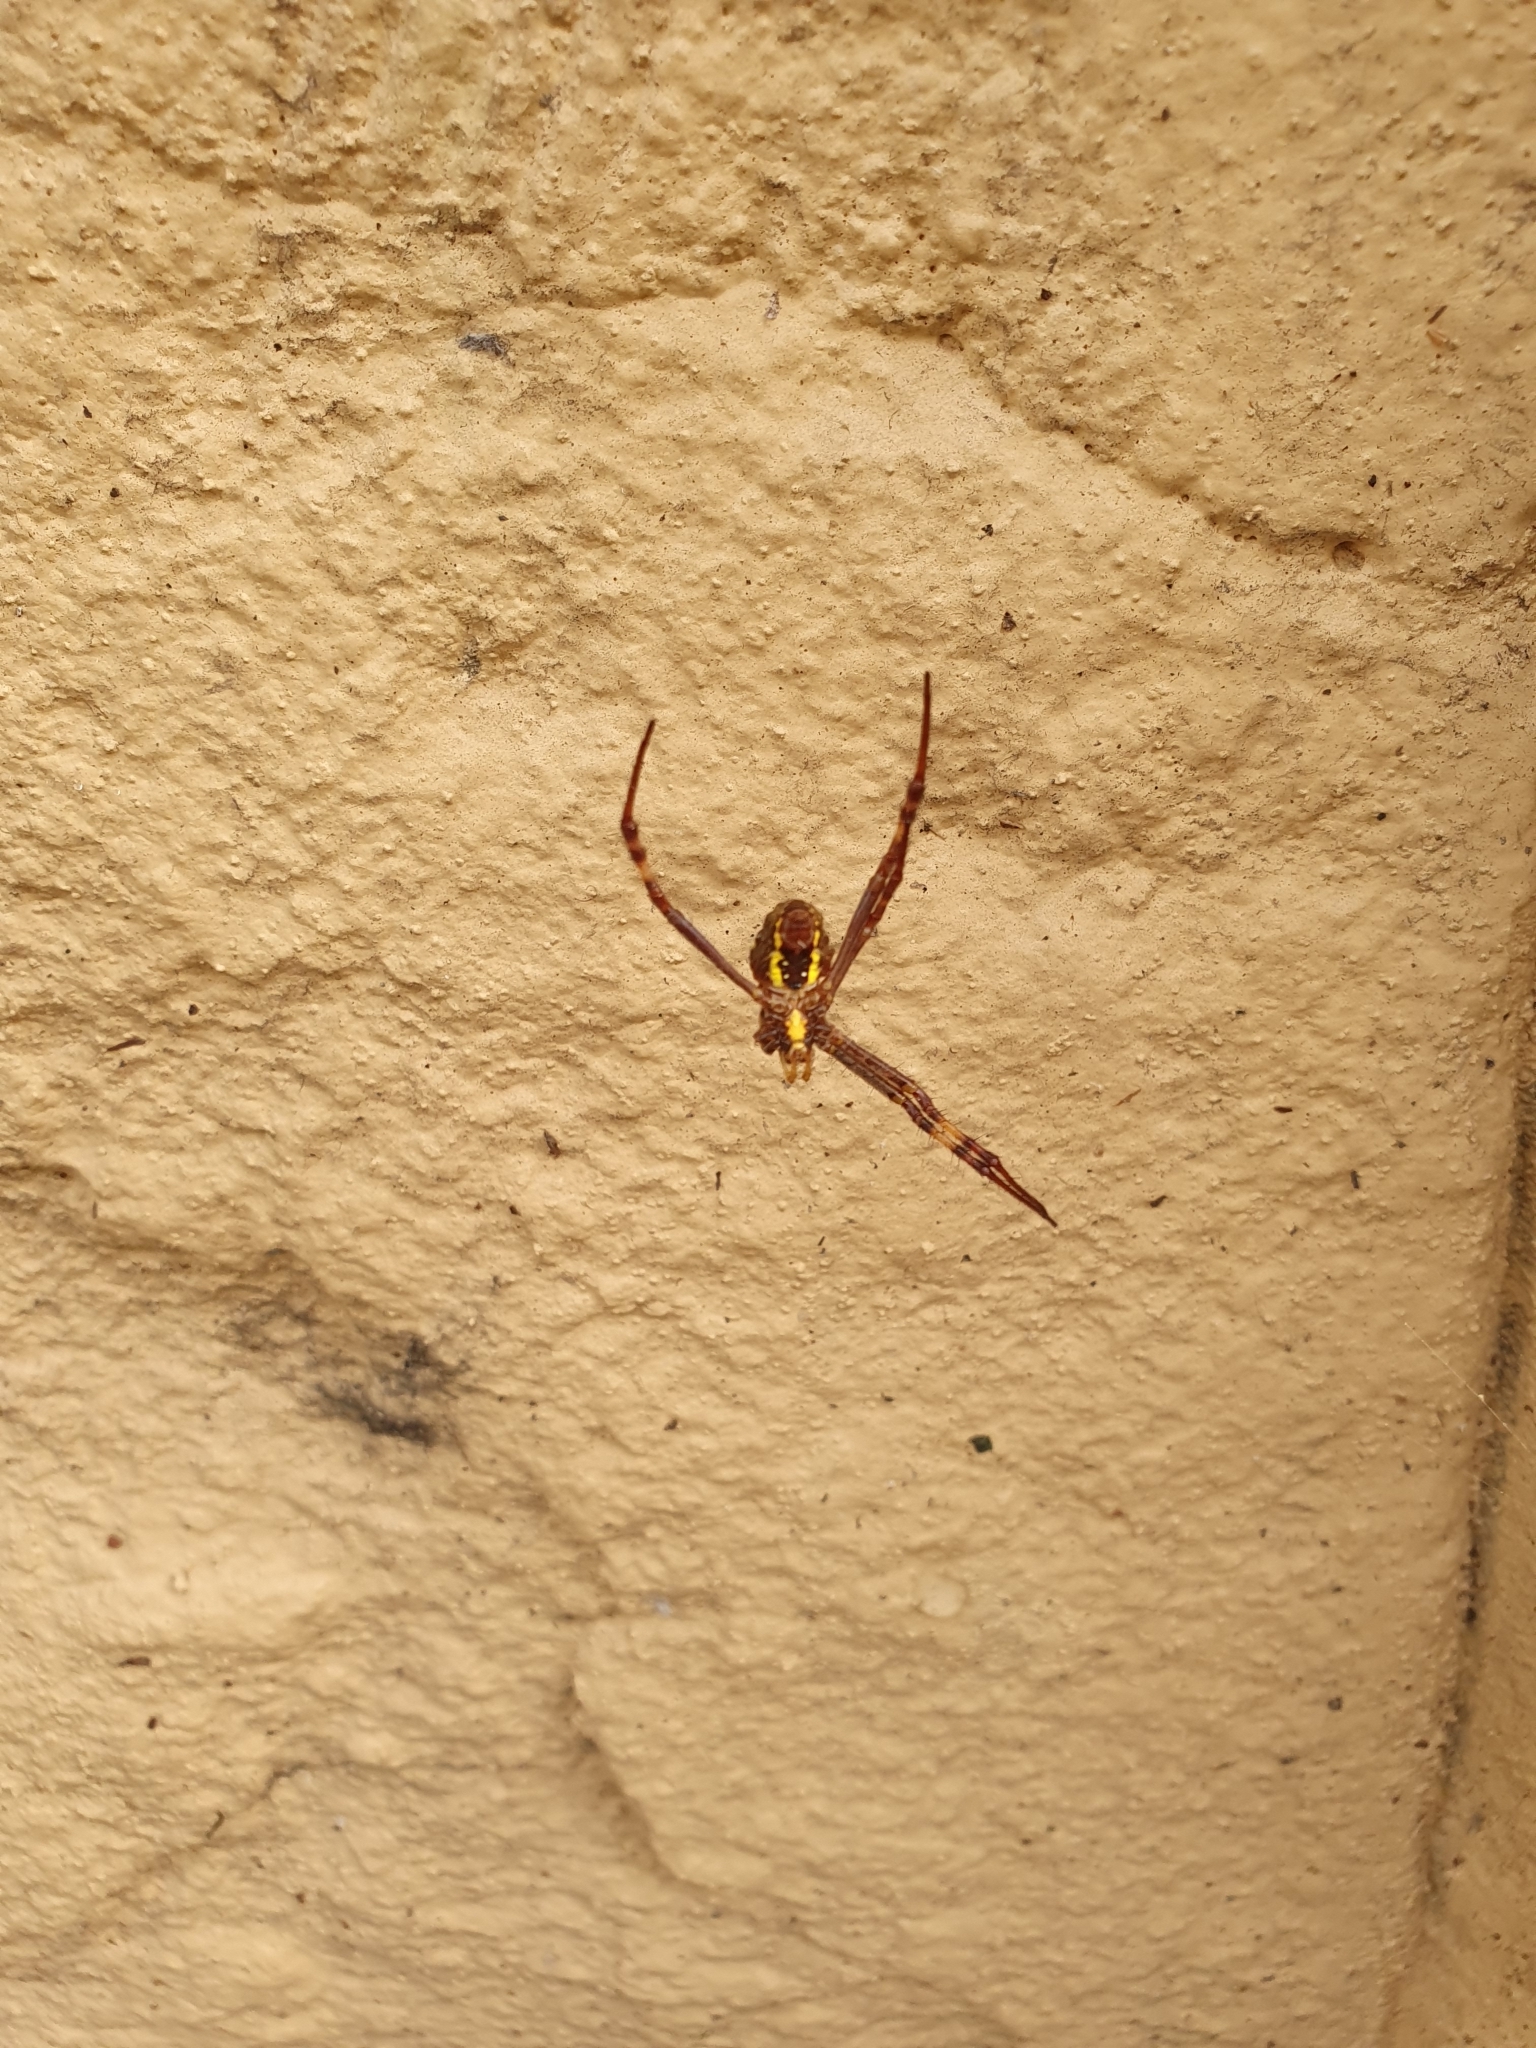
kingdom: Animalia
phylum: Arthropoda
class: Arachnida
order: Araneae
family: Araneidae
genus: Argiope
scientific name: Argiope keyserlingi
